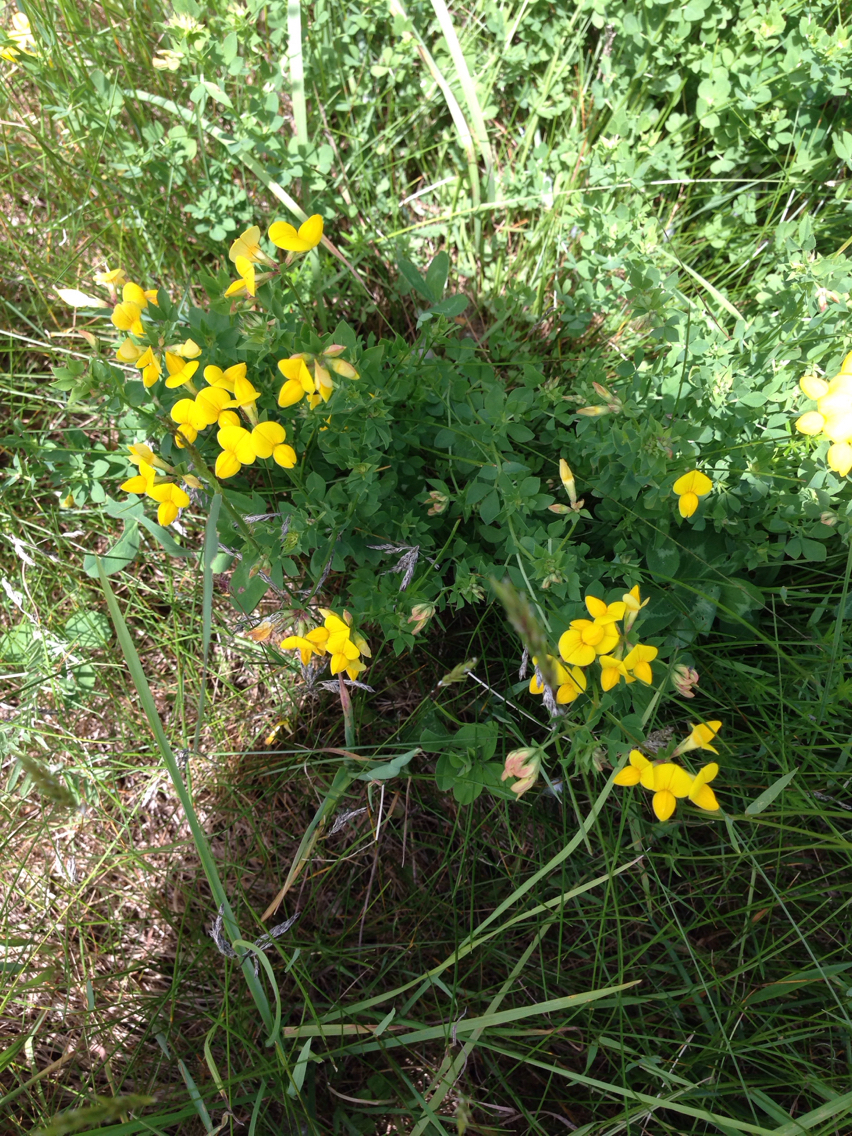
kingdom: Plantae
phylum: Tracheophyta
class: Magnoliopsida
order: Fabales
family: Fabaceae
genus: Lotus
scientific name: Lotus corniculatus
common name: Common bird's-foot-trefoil
